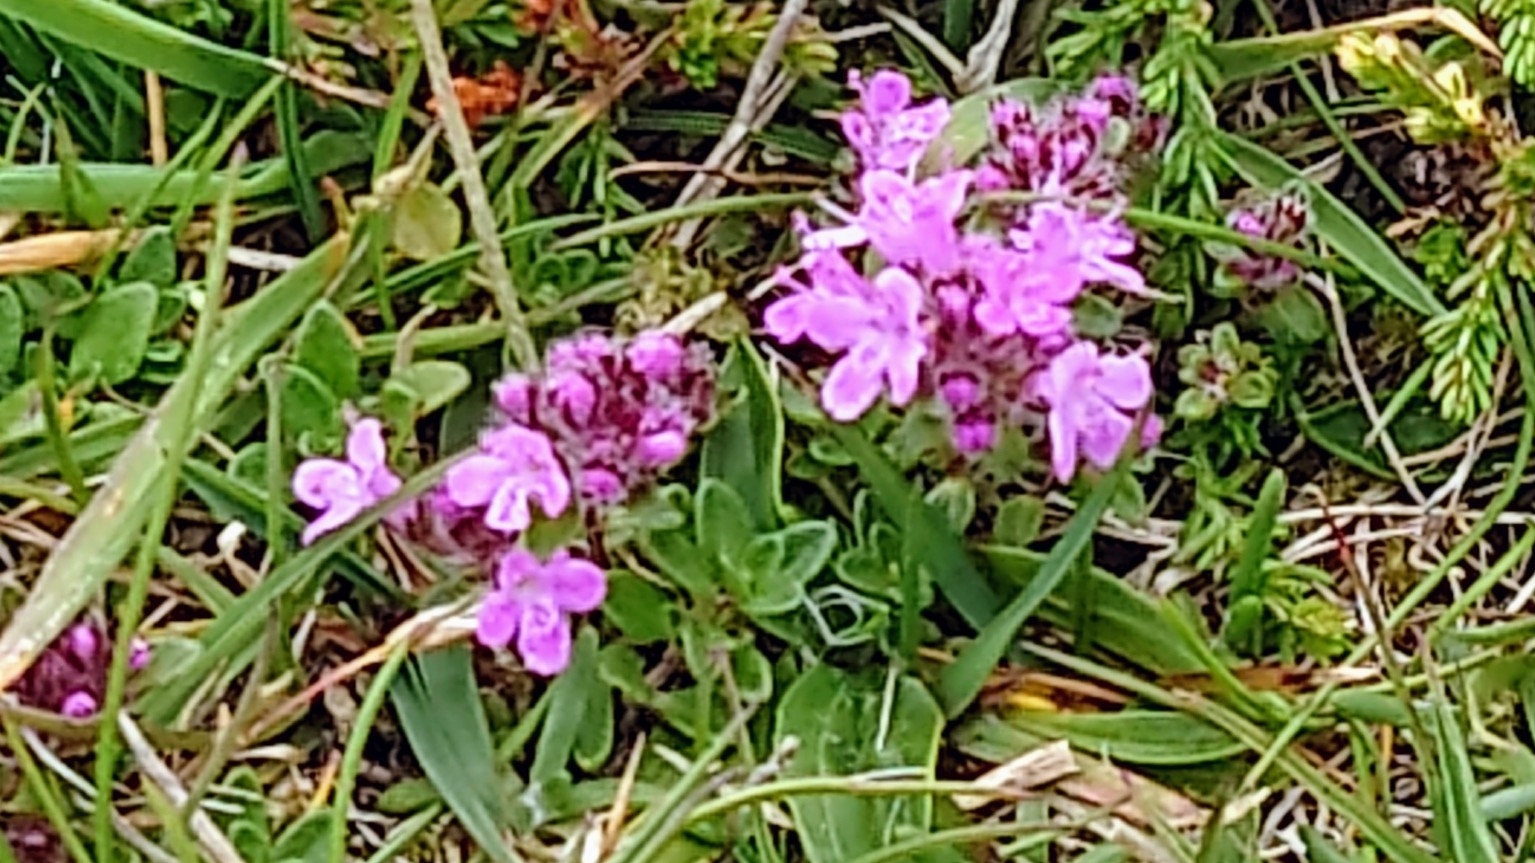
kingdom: Plantae
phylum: Tracheophyta
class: Magnoliopsida
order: Lamiales
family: Lamiaceae
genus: Thymus
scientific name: Thymus praecox
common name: Wild thyme
